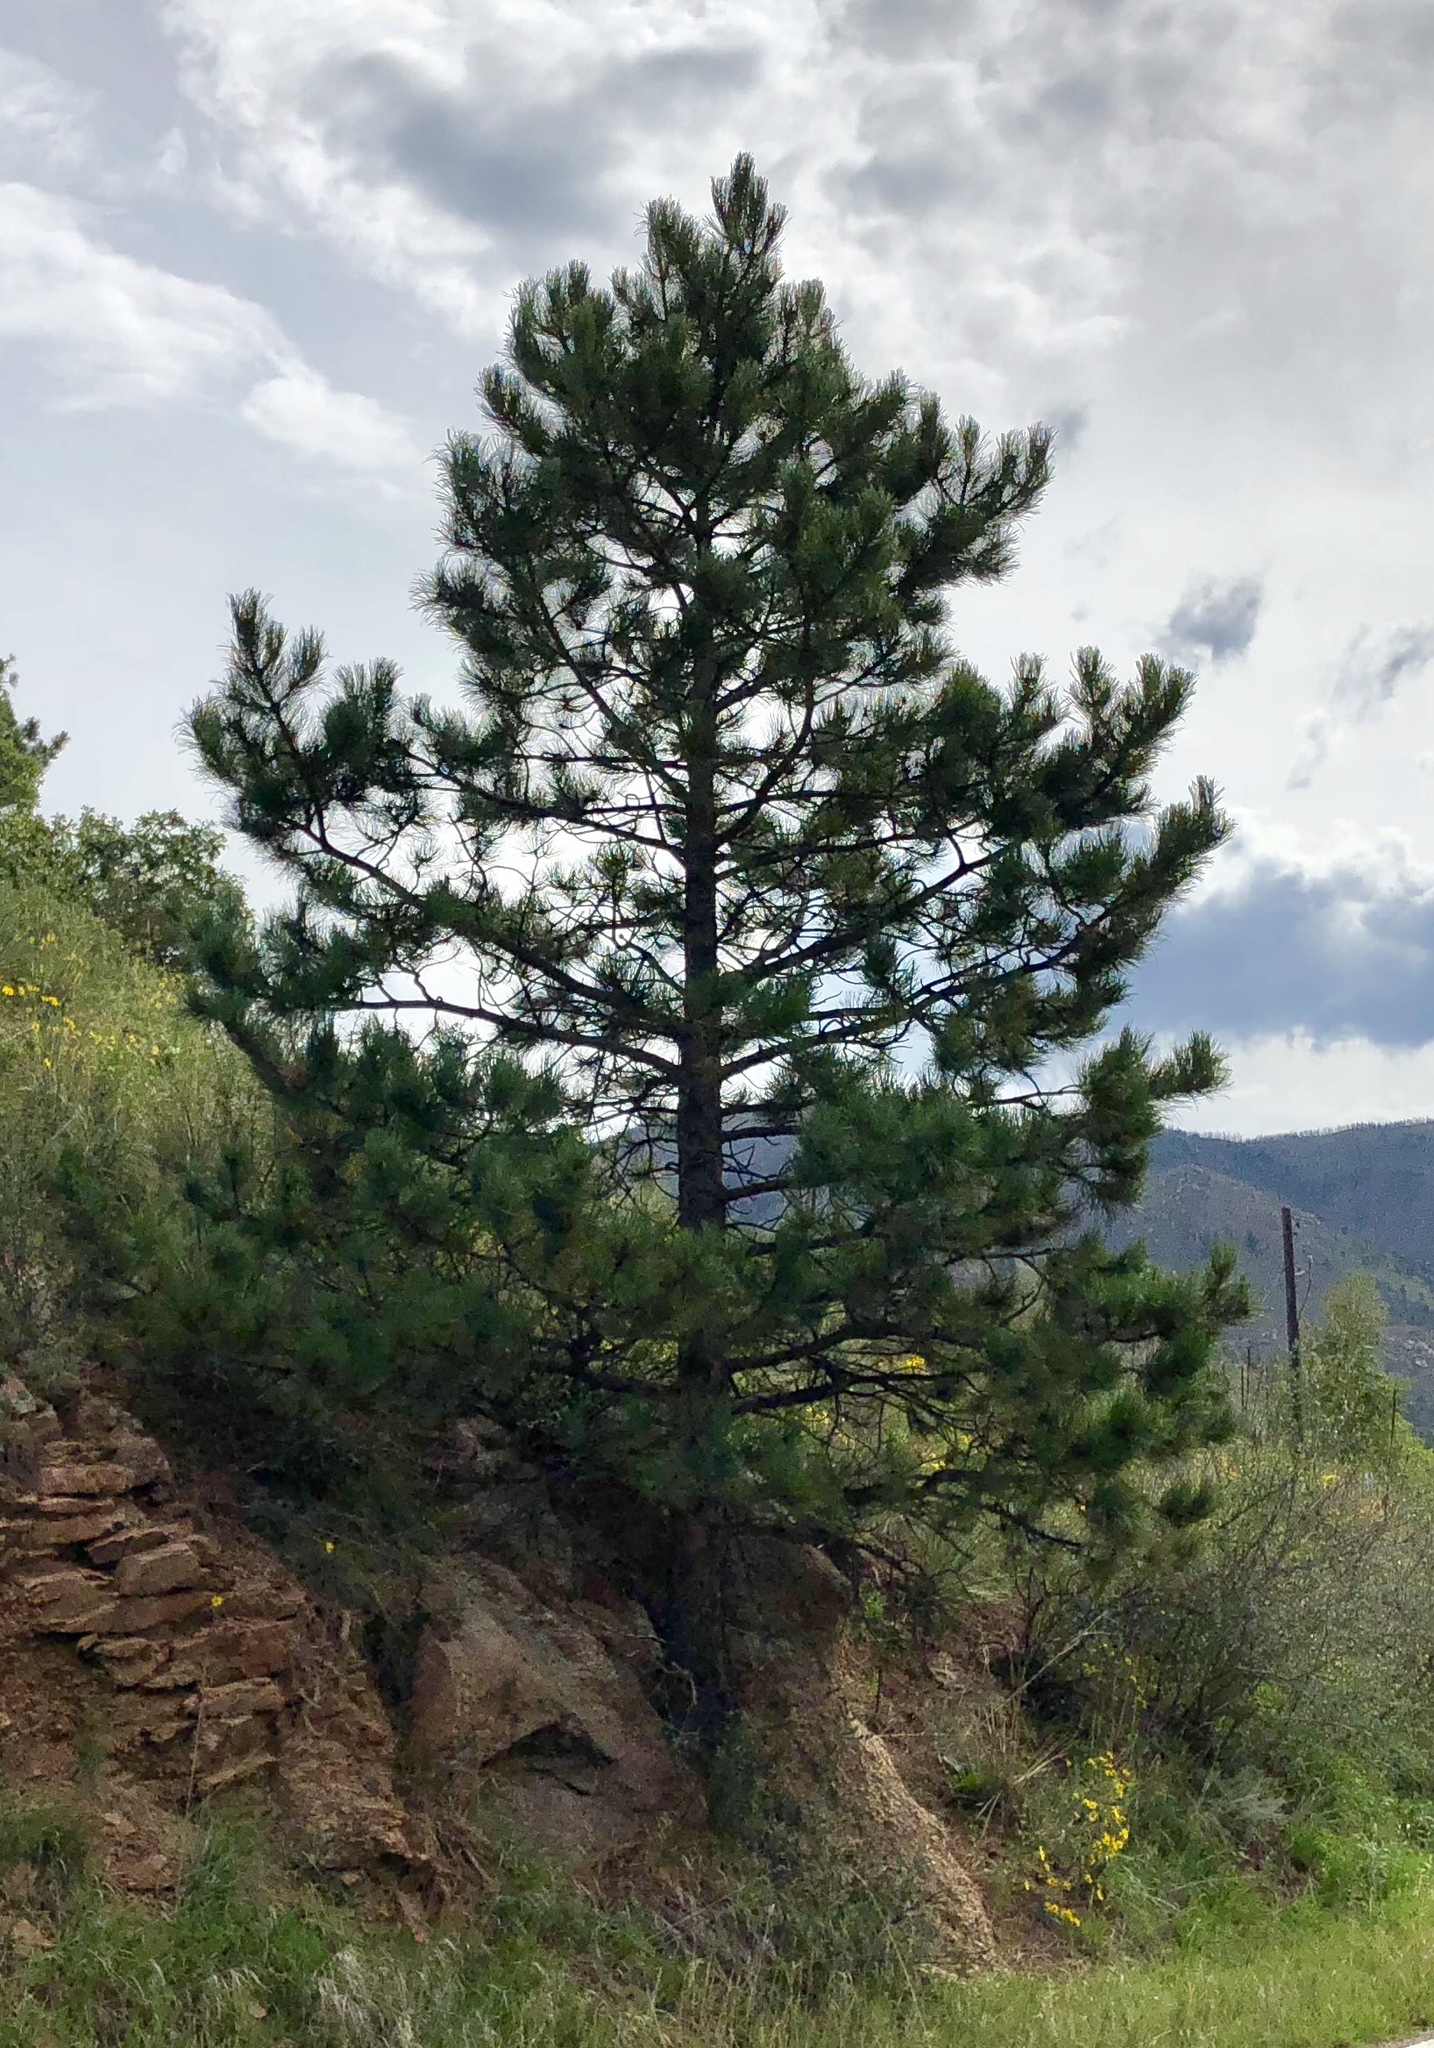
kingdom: Plantae
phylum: Tracheophyta
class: Pinopsida
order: Pinales
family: Pinaceae
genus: Pinus
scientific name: Pinus ponderosa
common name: Western yellow-pine
